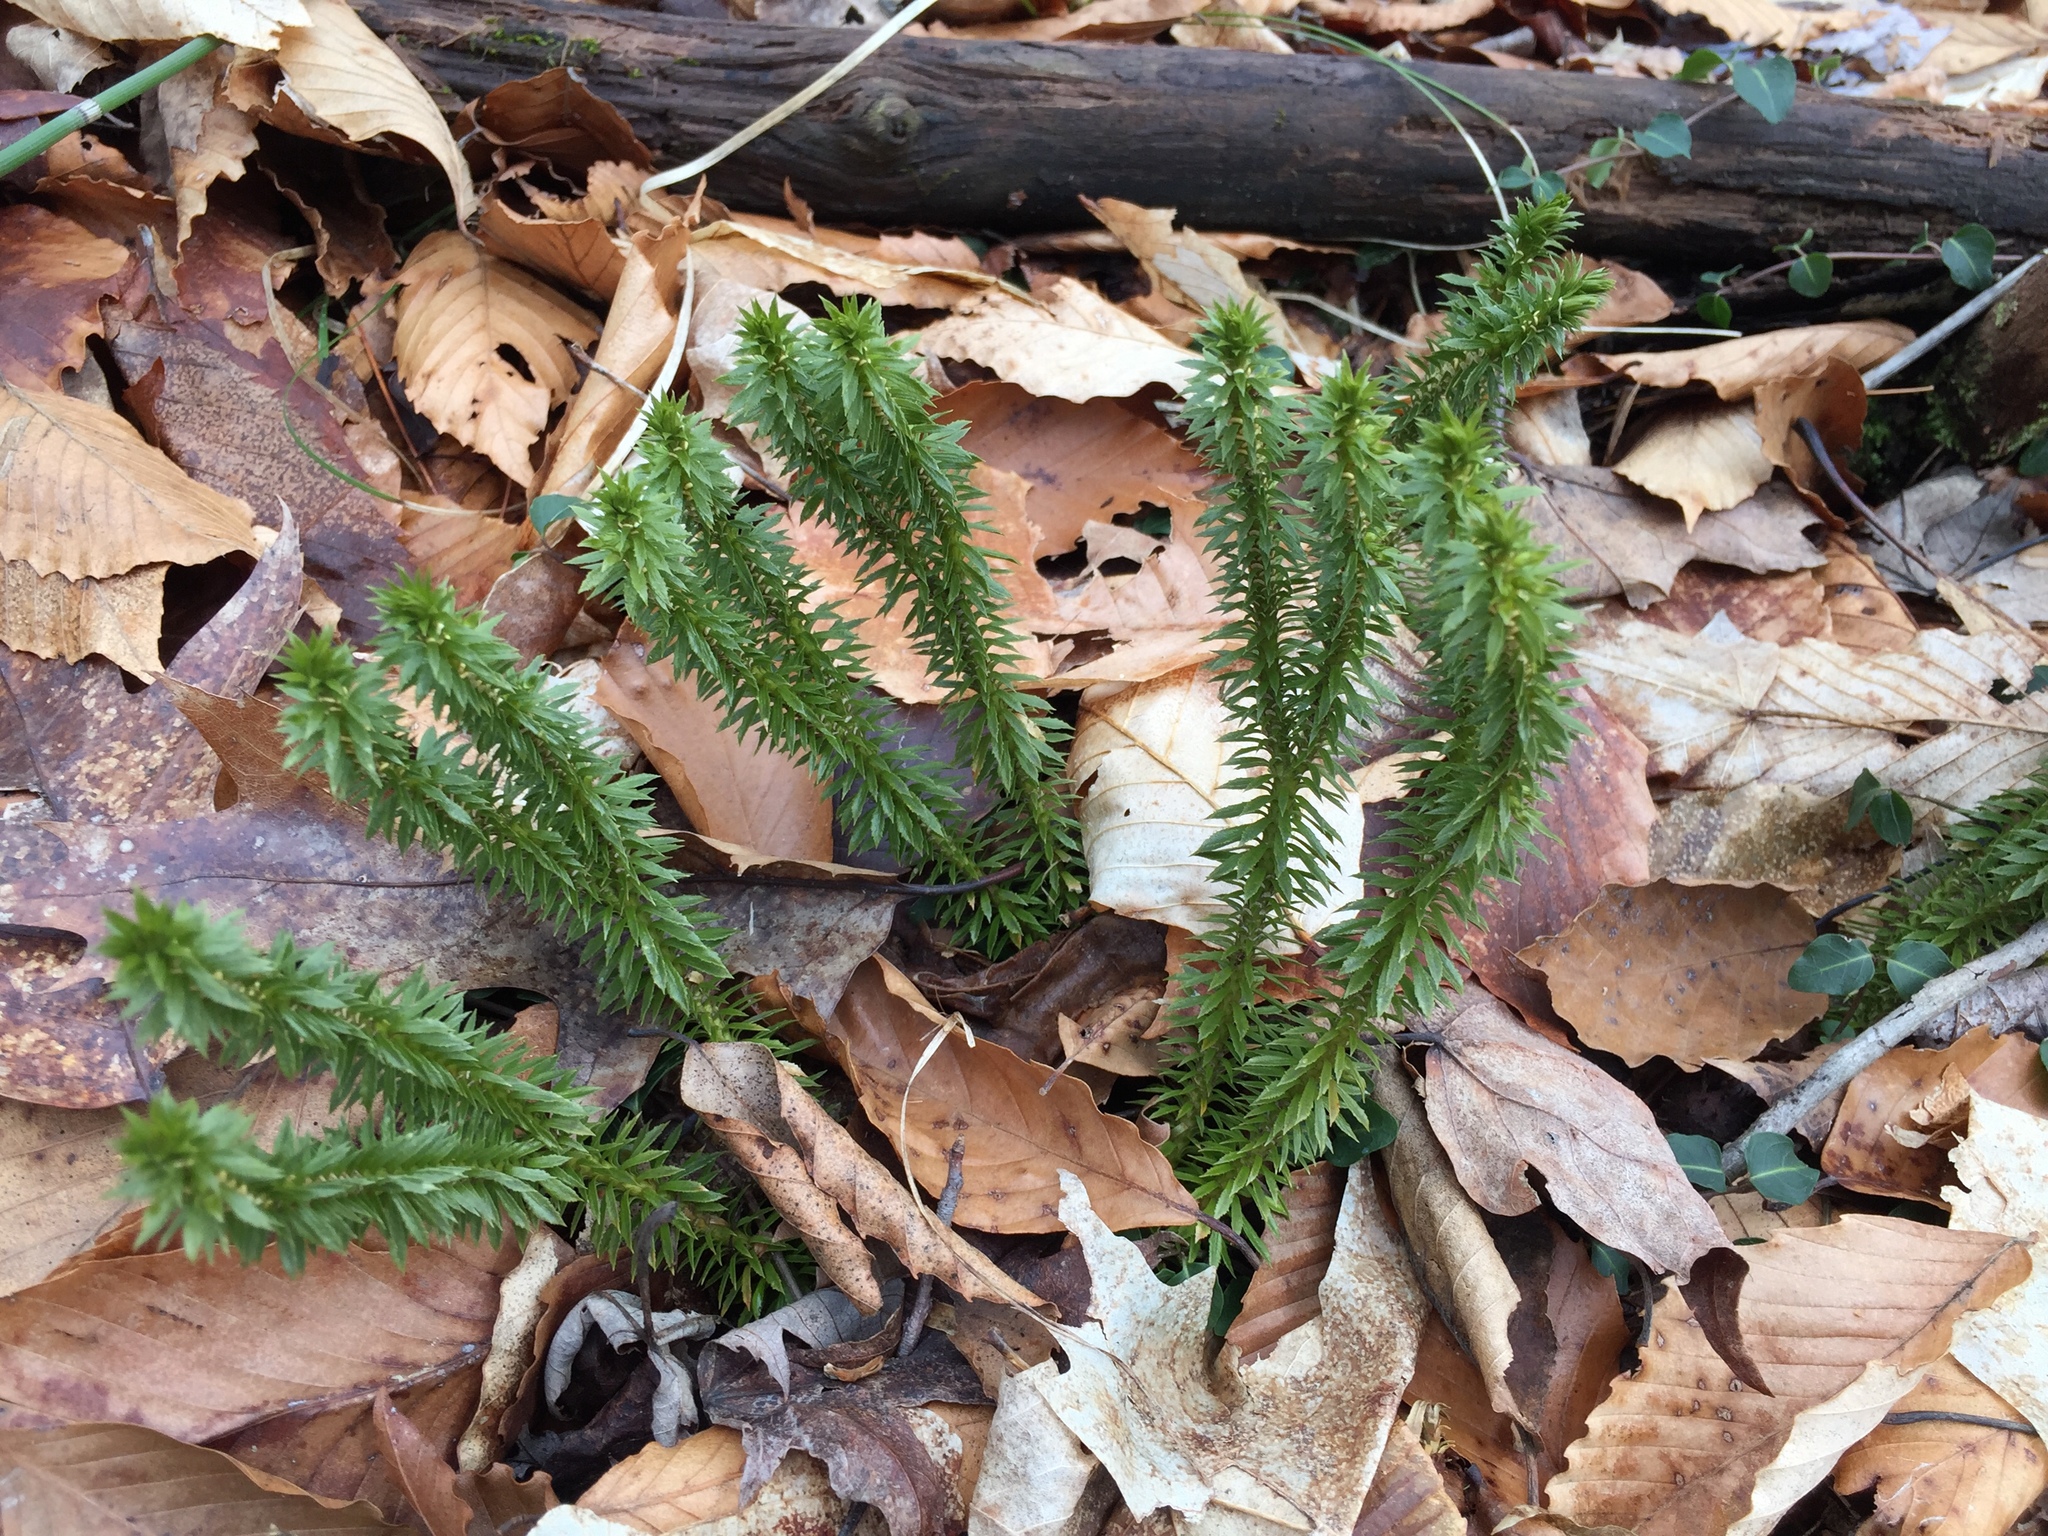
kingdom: Plantae
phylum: Tracheophyta
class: Lycopodiopsida
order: Lycopodiales
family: Lycopodiaceae
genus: Huperzia
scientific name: Huperzia lucidula
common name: Shining clubmoss
